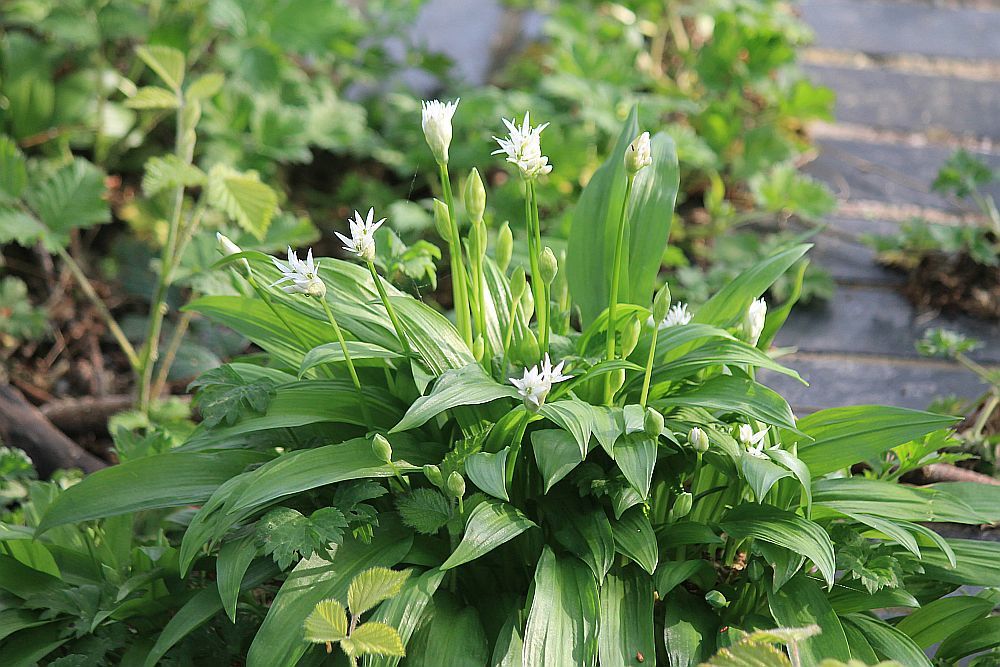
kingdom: Plantae
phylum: Tracheophyta
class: Liliopsida
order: Asparagales
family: Amaryllidaceae
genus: Allium
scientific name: Allium ursinum
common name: Ramsons
